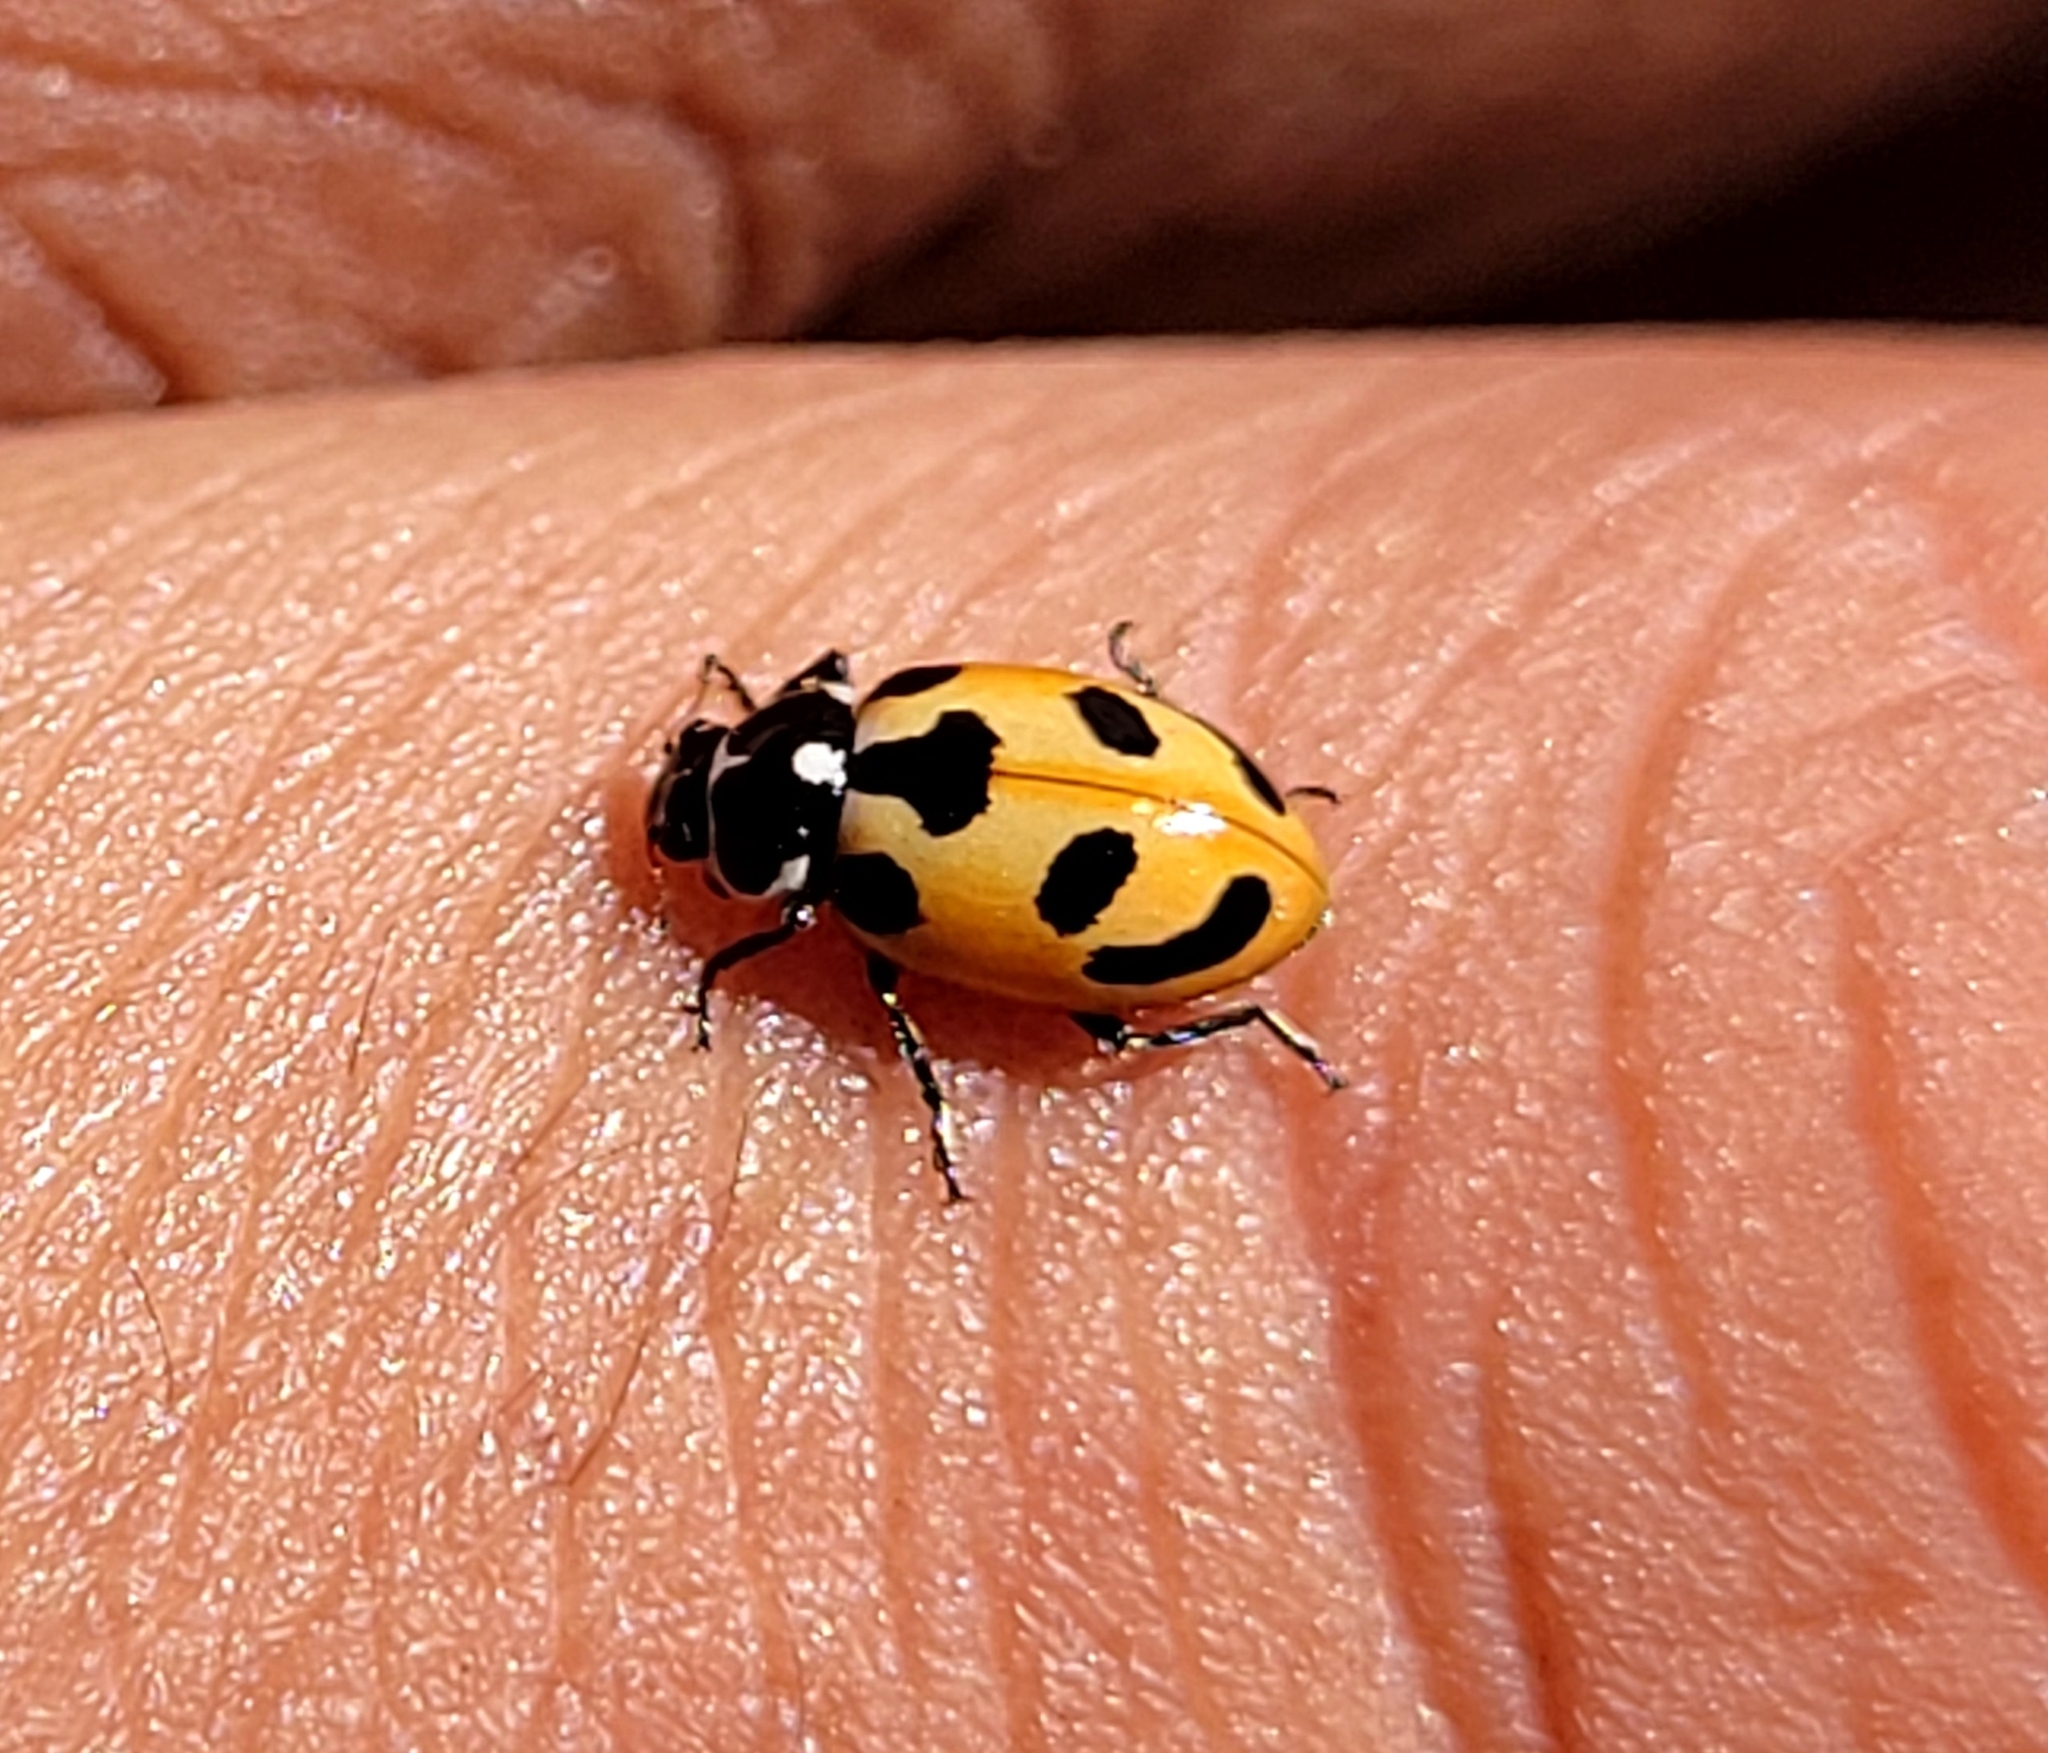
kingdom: Animalia
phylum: Arthropoda
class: Insecta
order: Coleoptera
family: Coccinellidae
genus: Hippodamia
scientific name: Hippodamia parenthesis
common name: Parenthesis lady beetle
